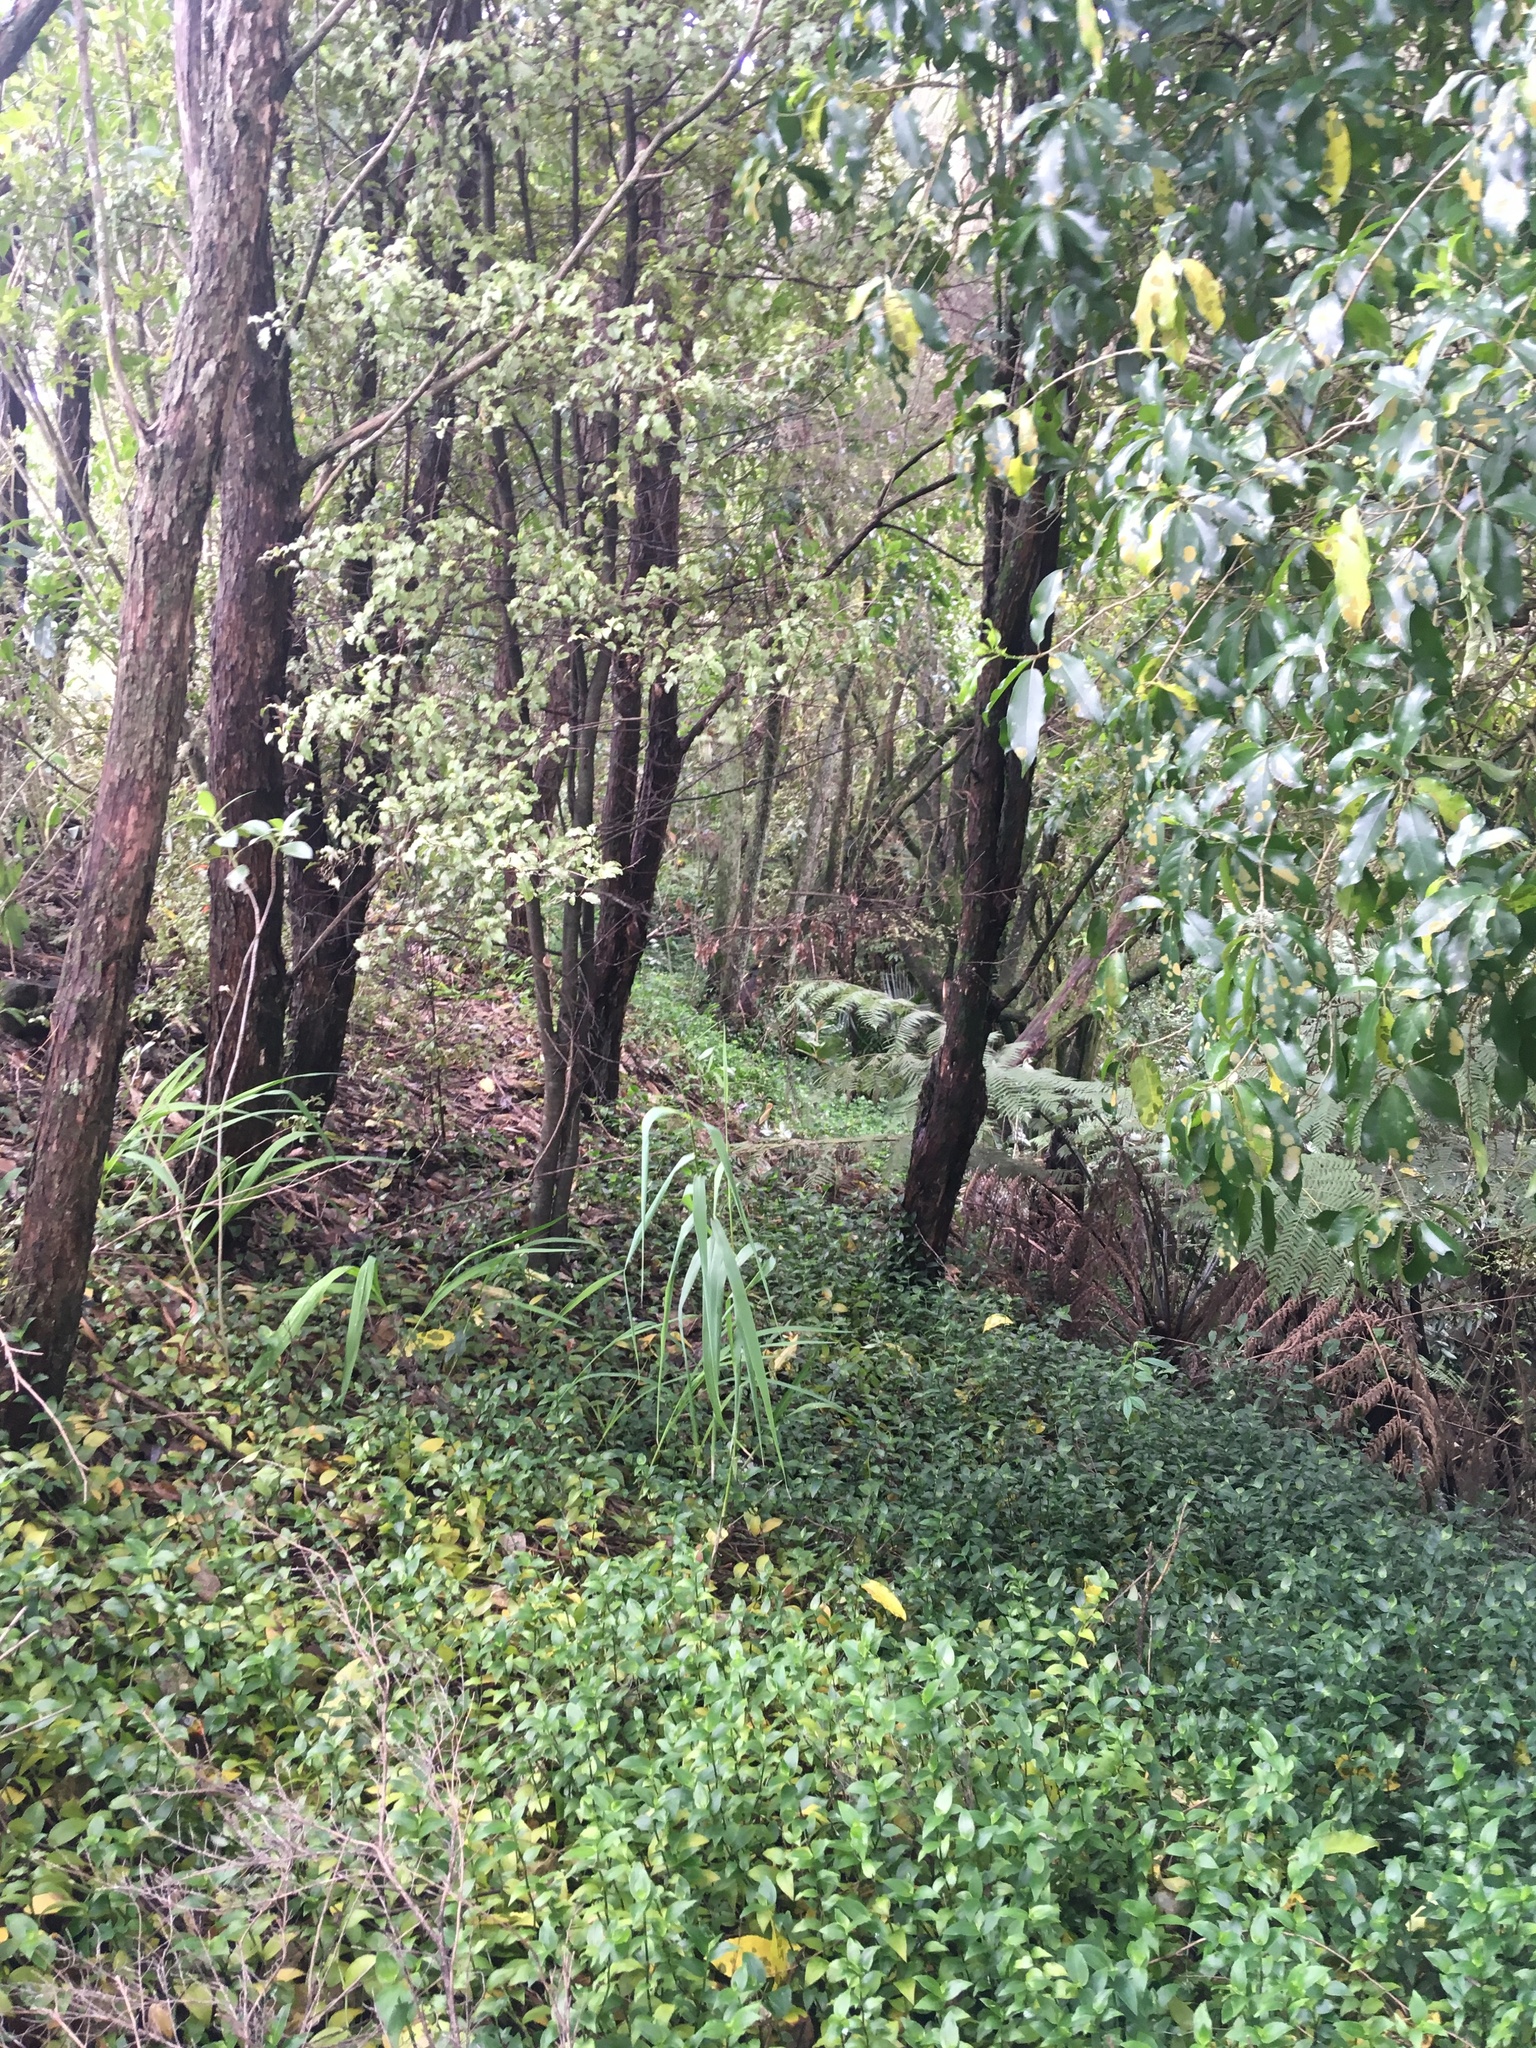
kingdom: Plantae
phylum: Tracheophyta
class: Liliopsida
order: Poales
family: Poaceae
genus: Arundo
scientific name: Arundo donax
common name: Giant reed
